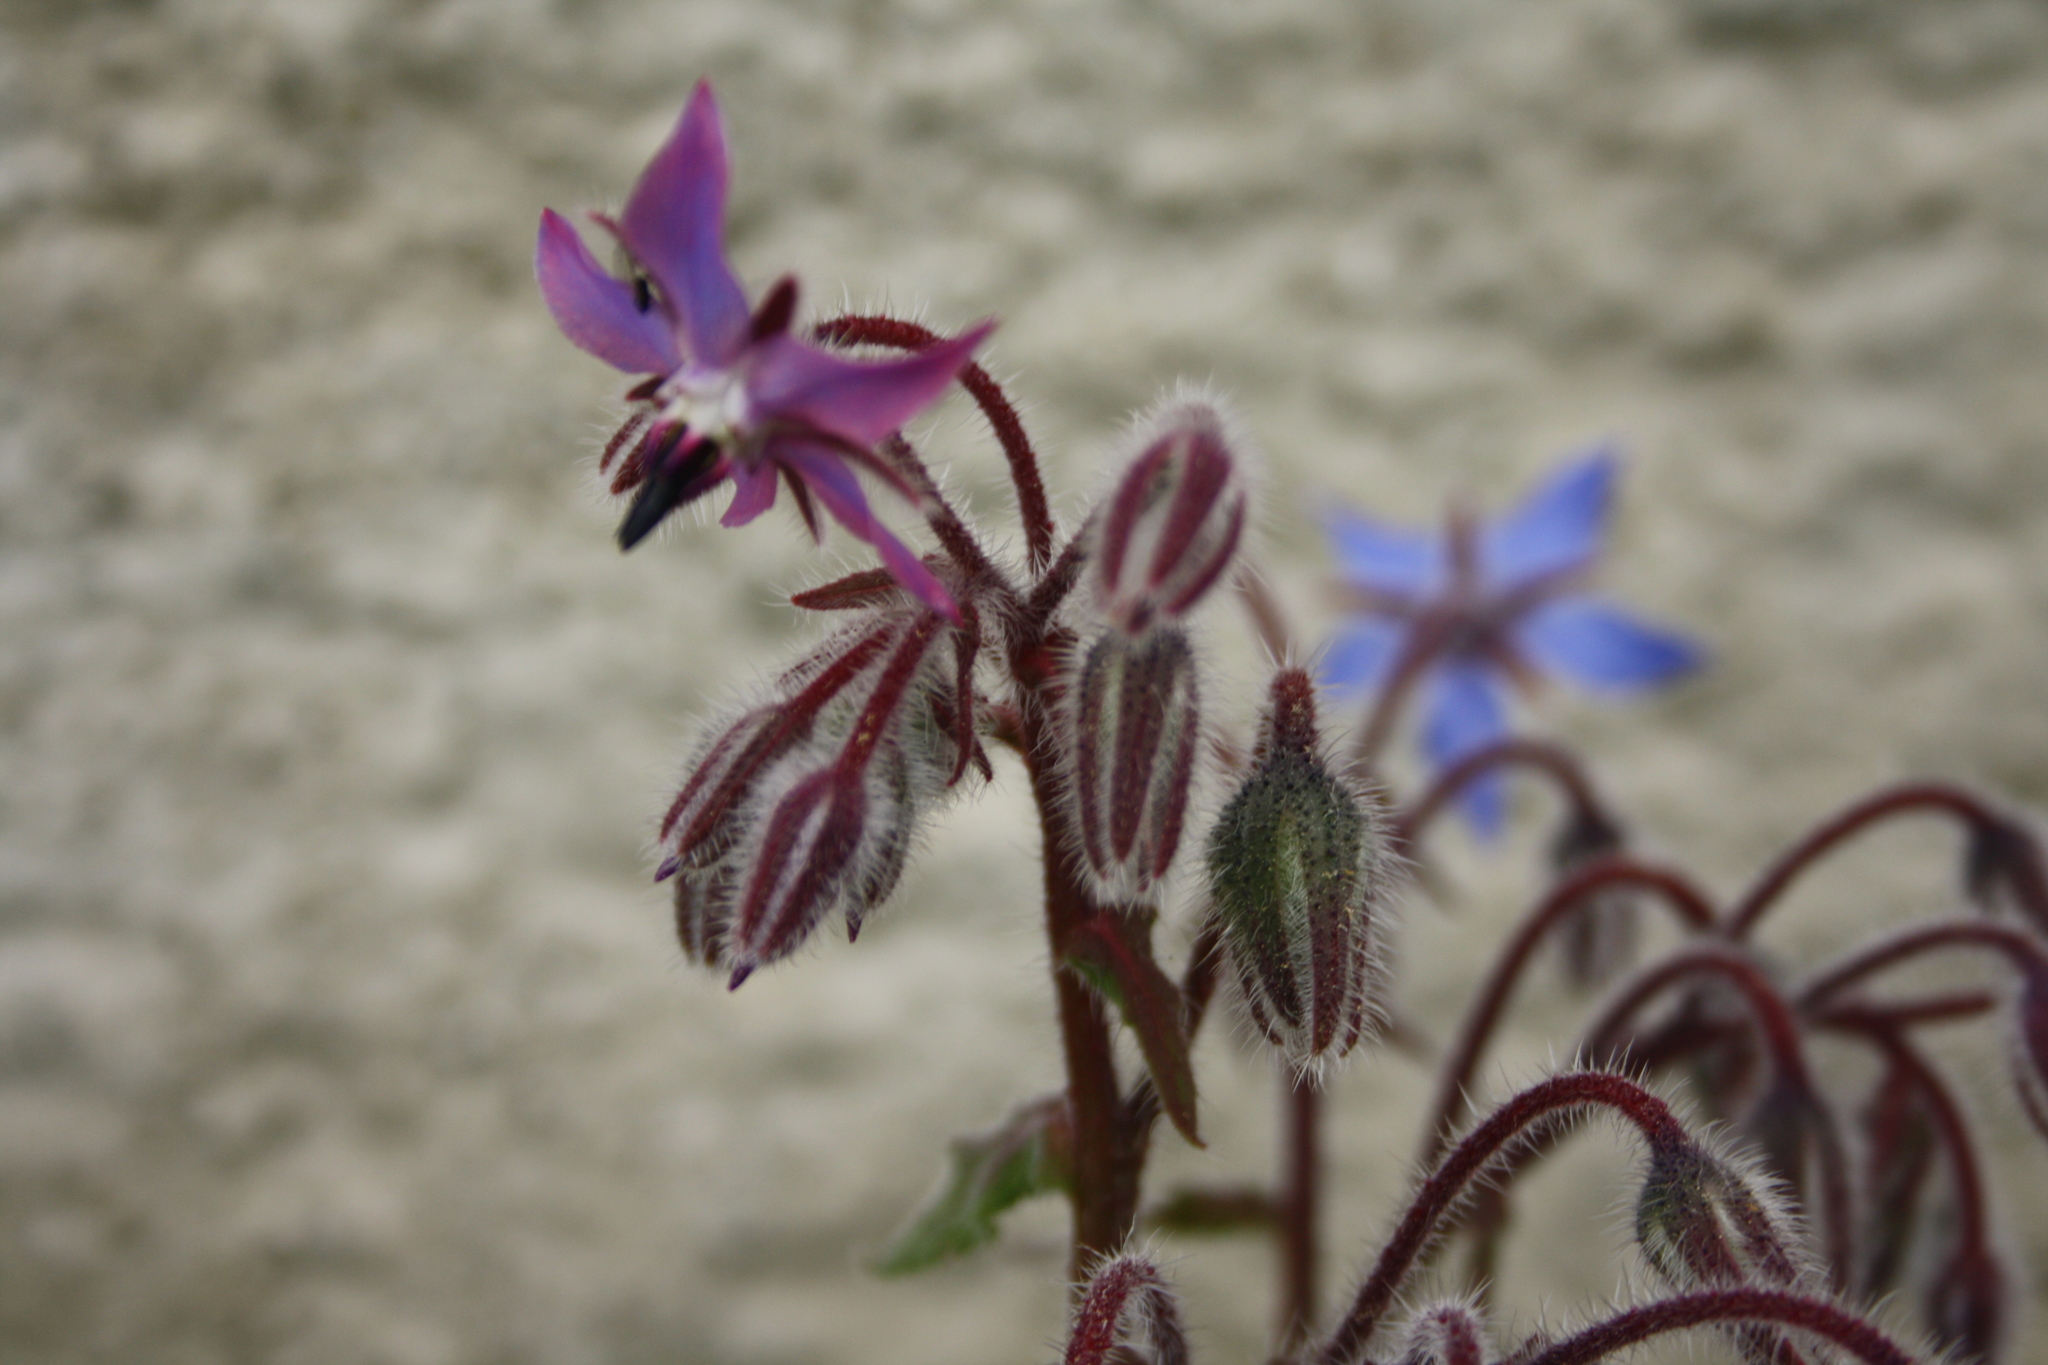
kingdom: Plantae
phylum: Tracheophyta
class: Magnoliopsida
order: Boraginales
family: Boraginaceae
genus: Borago
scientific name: Borago officinalis
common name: Borage
